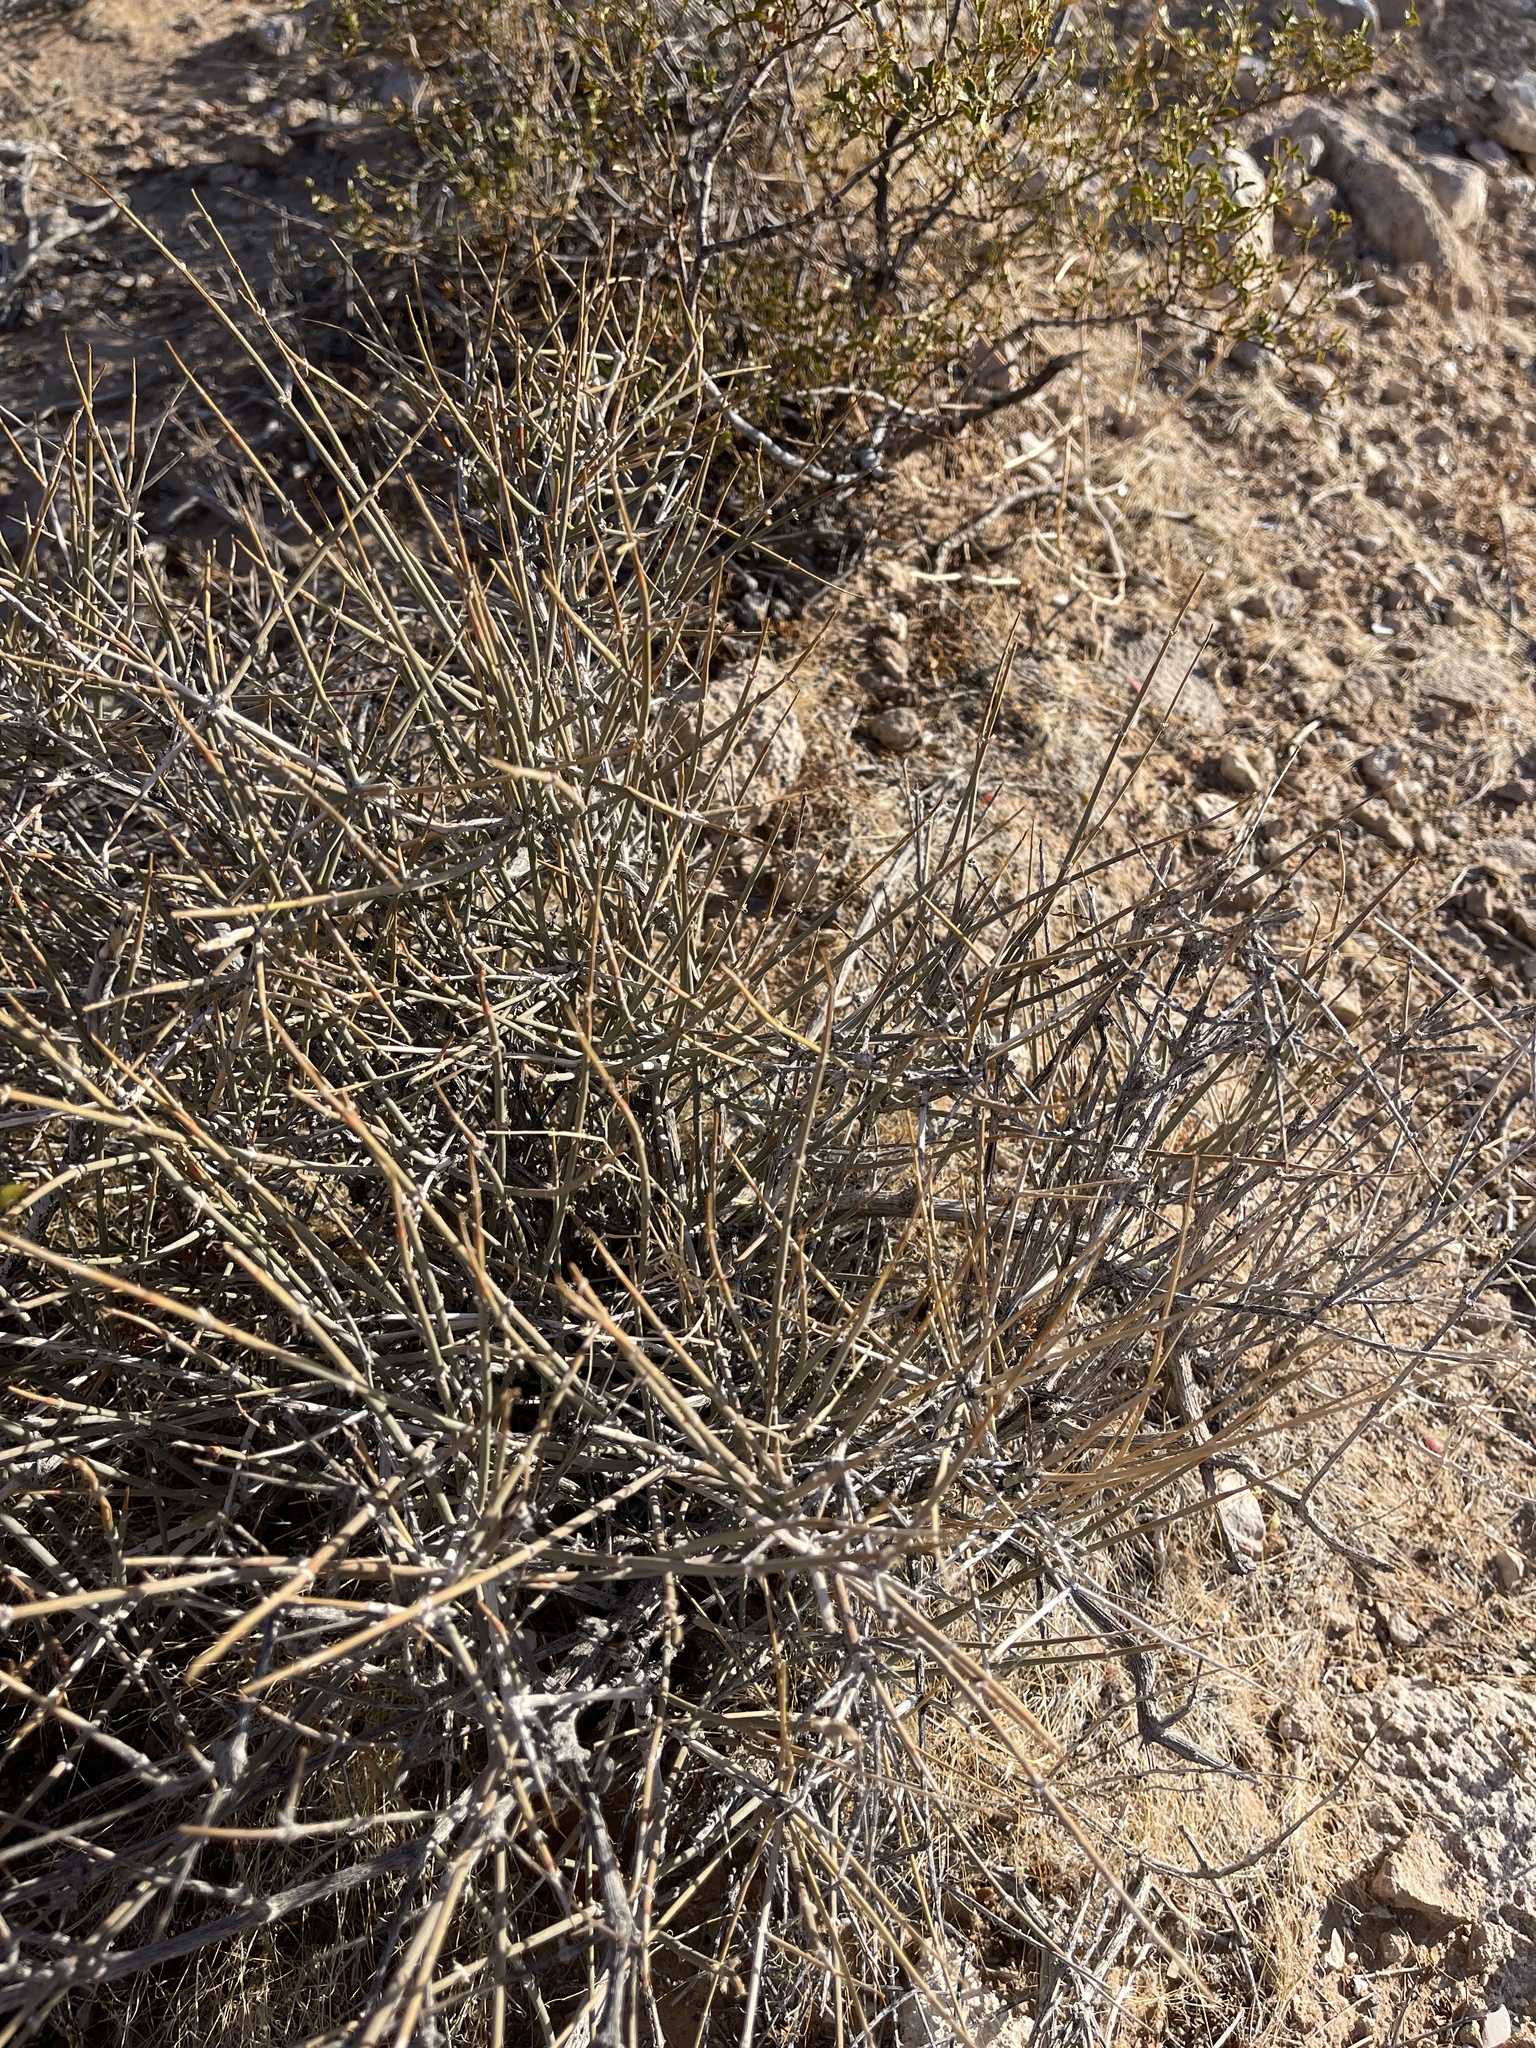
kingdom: Plantae
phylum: Tracheophyta
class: Gnetopsida
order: Ephedrales
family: Ephedraceae
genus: Ephedra
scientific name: Ephedra nevadensis
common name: Gray ephedra
